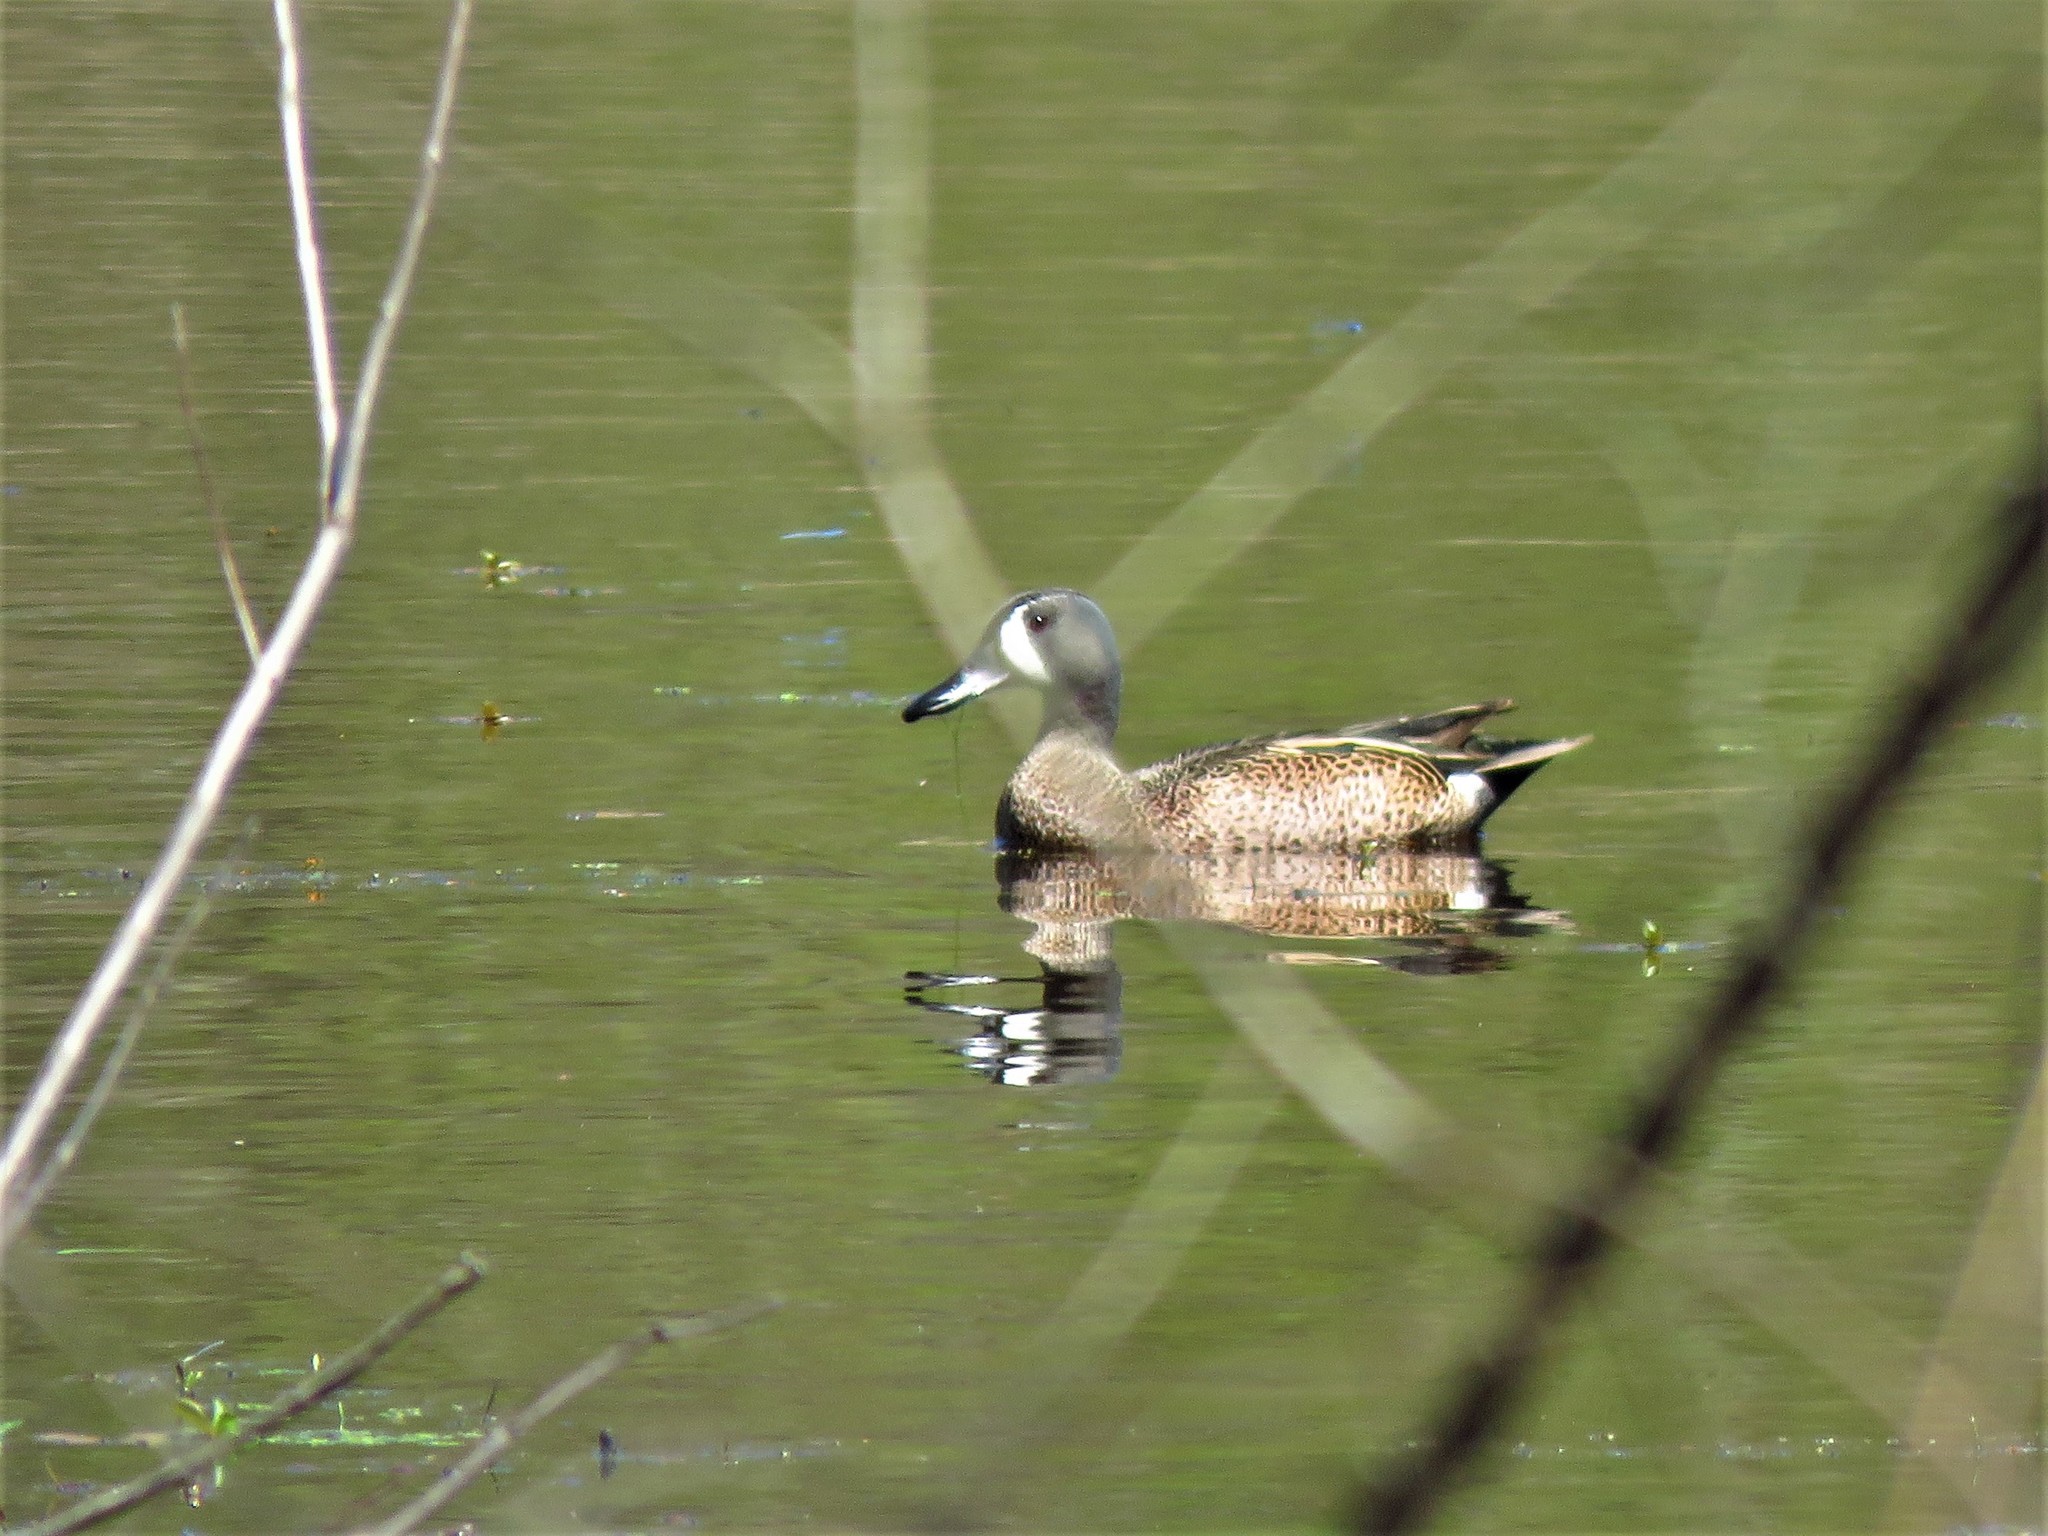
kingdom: Animalia
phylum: Chordata
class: Aves
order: Anseriformes
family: Anatidae
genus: Spatula
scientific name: Spatula discors
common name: Blue-winged teal
